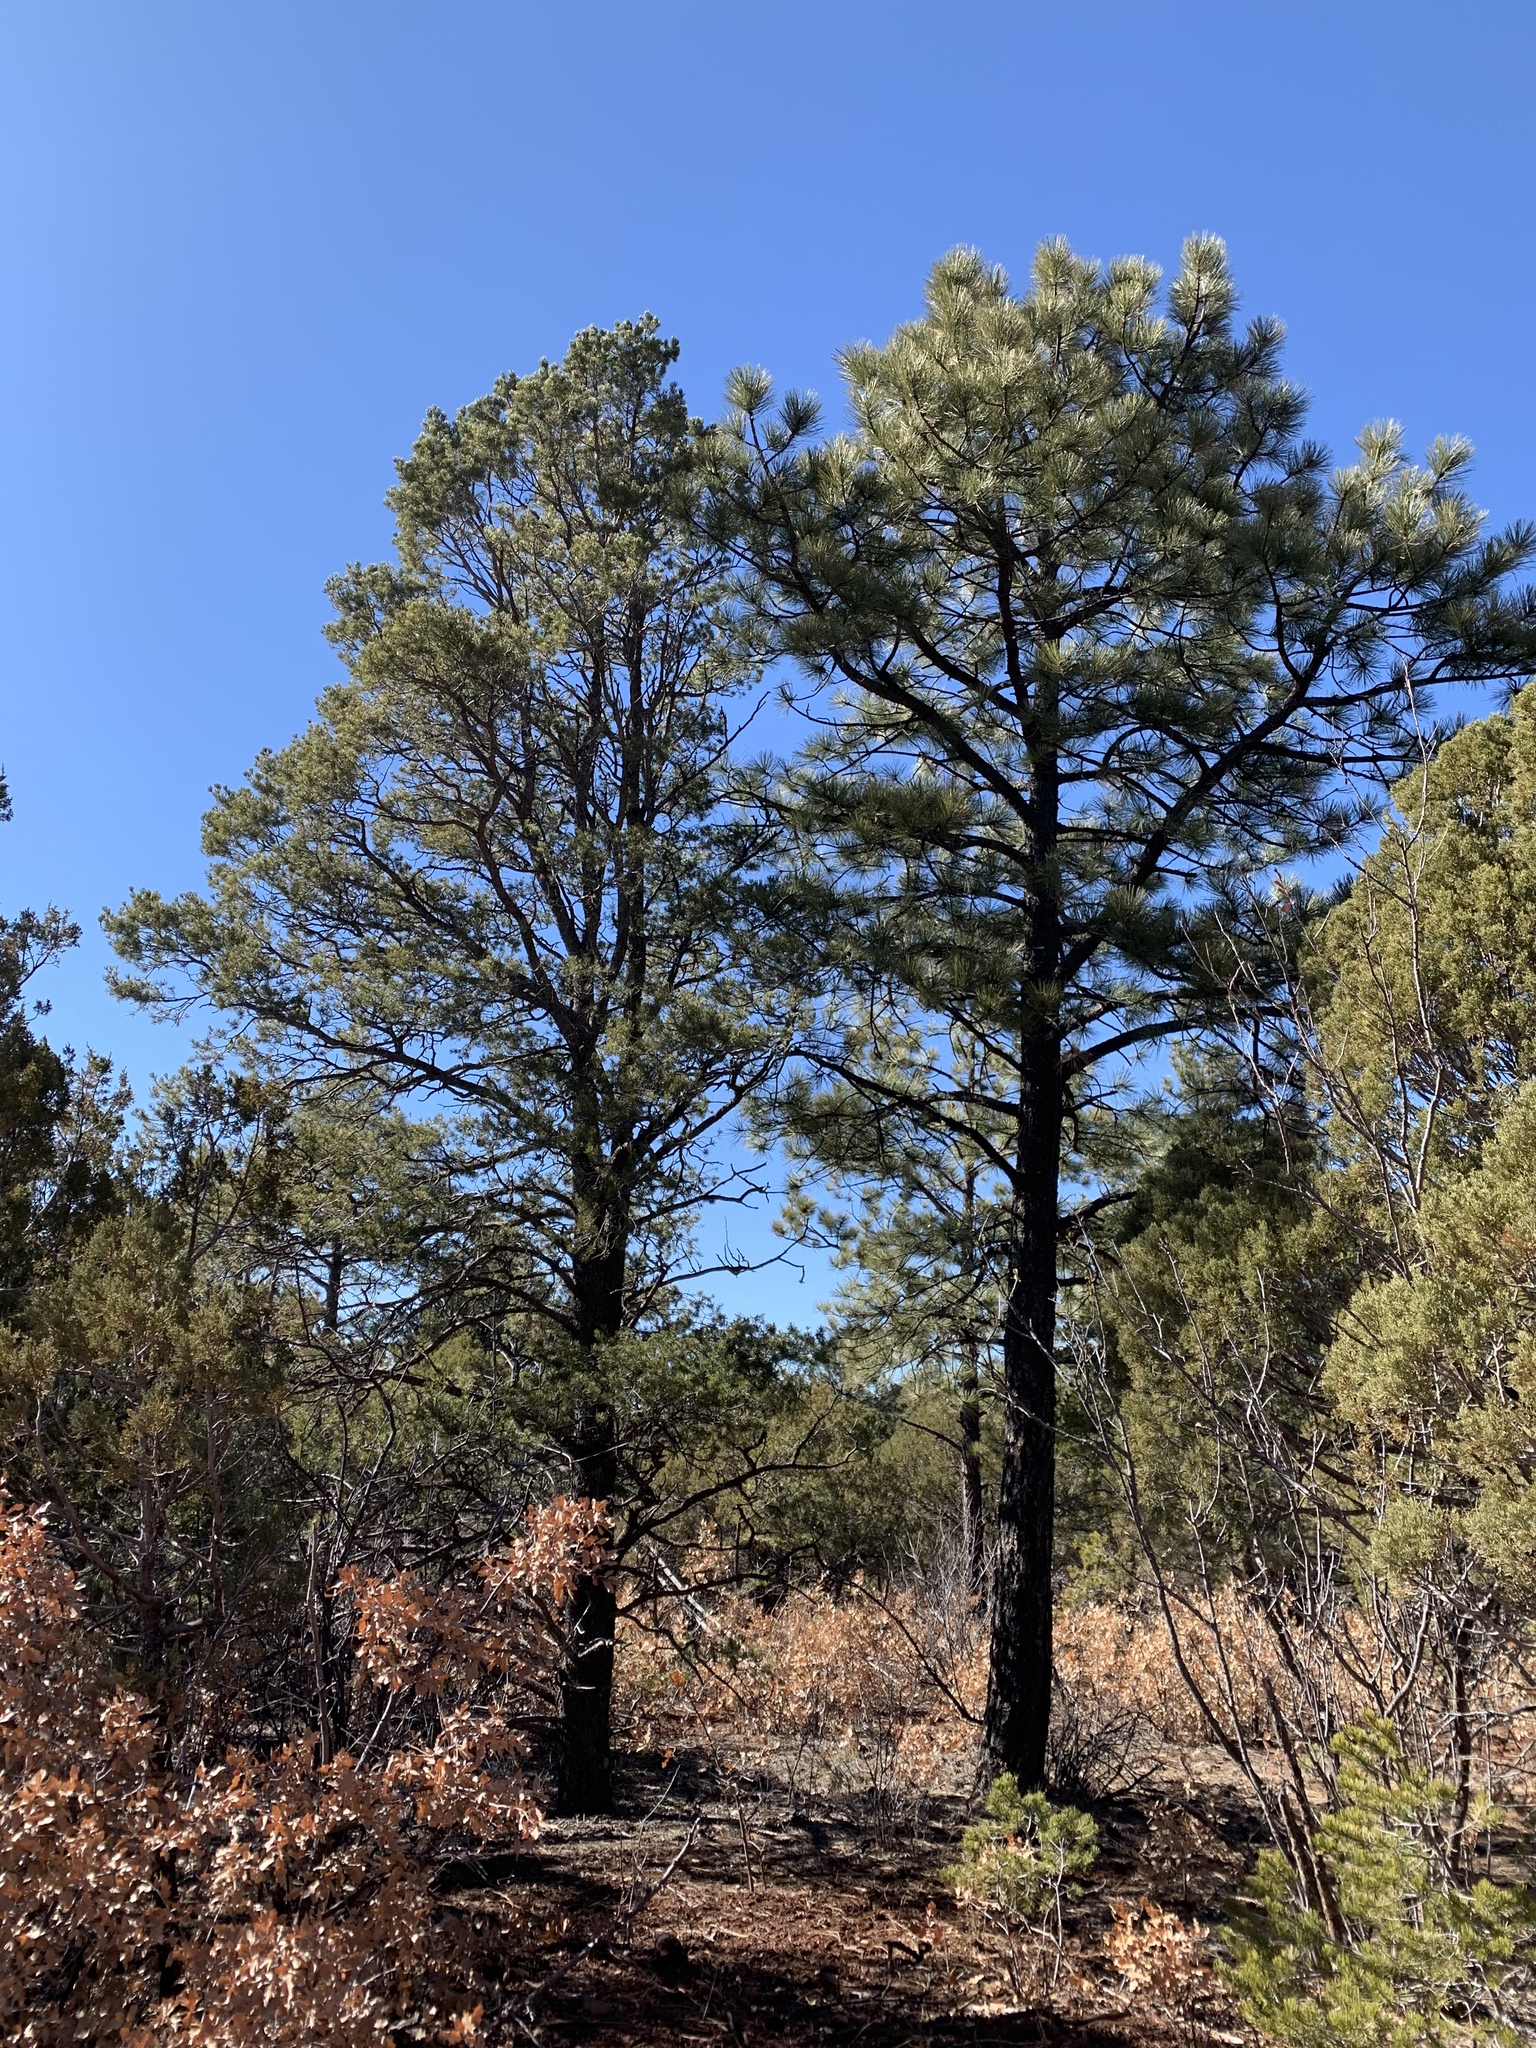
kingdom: Plantae
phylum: Tracheophyta
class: Pinopsida
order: Pinales
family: Pinaceae
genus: Pinus
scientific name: Pinus ponderosa
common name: Western yellow-pine
